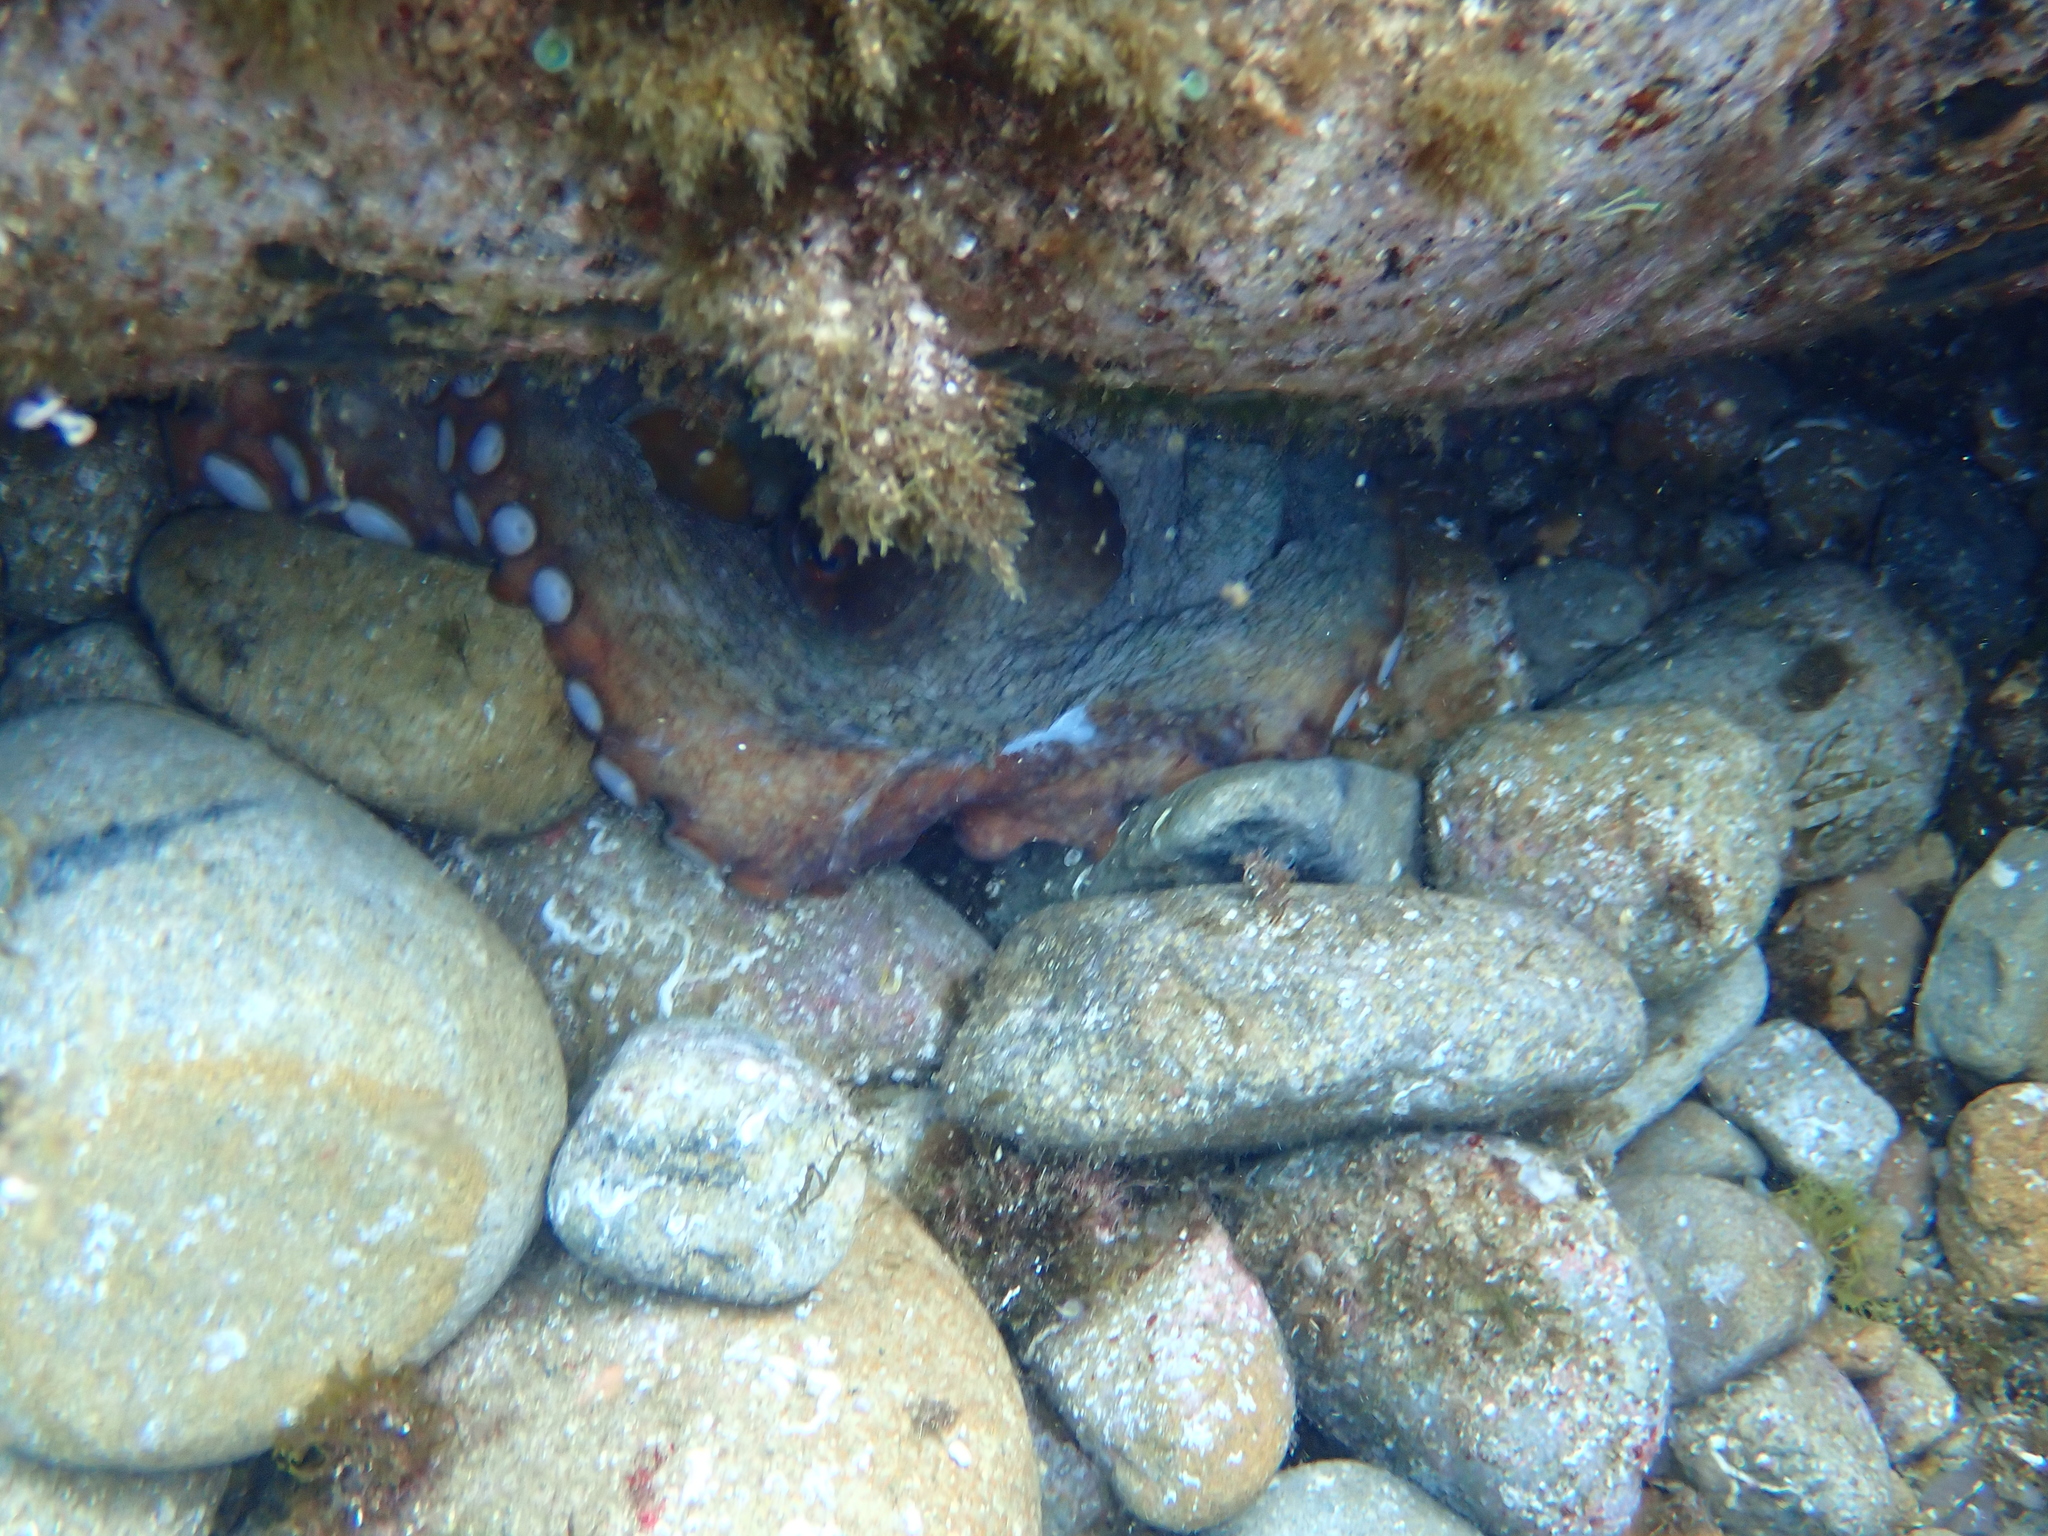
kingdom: Animalia
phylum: Mollusca
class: Cephalopoda
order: Octopoda
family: Octopodidae
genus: Octopus
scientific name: Octopus vulgaris
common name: Common octopus
